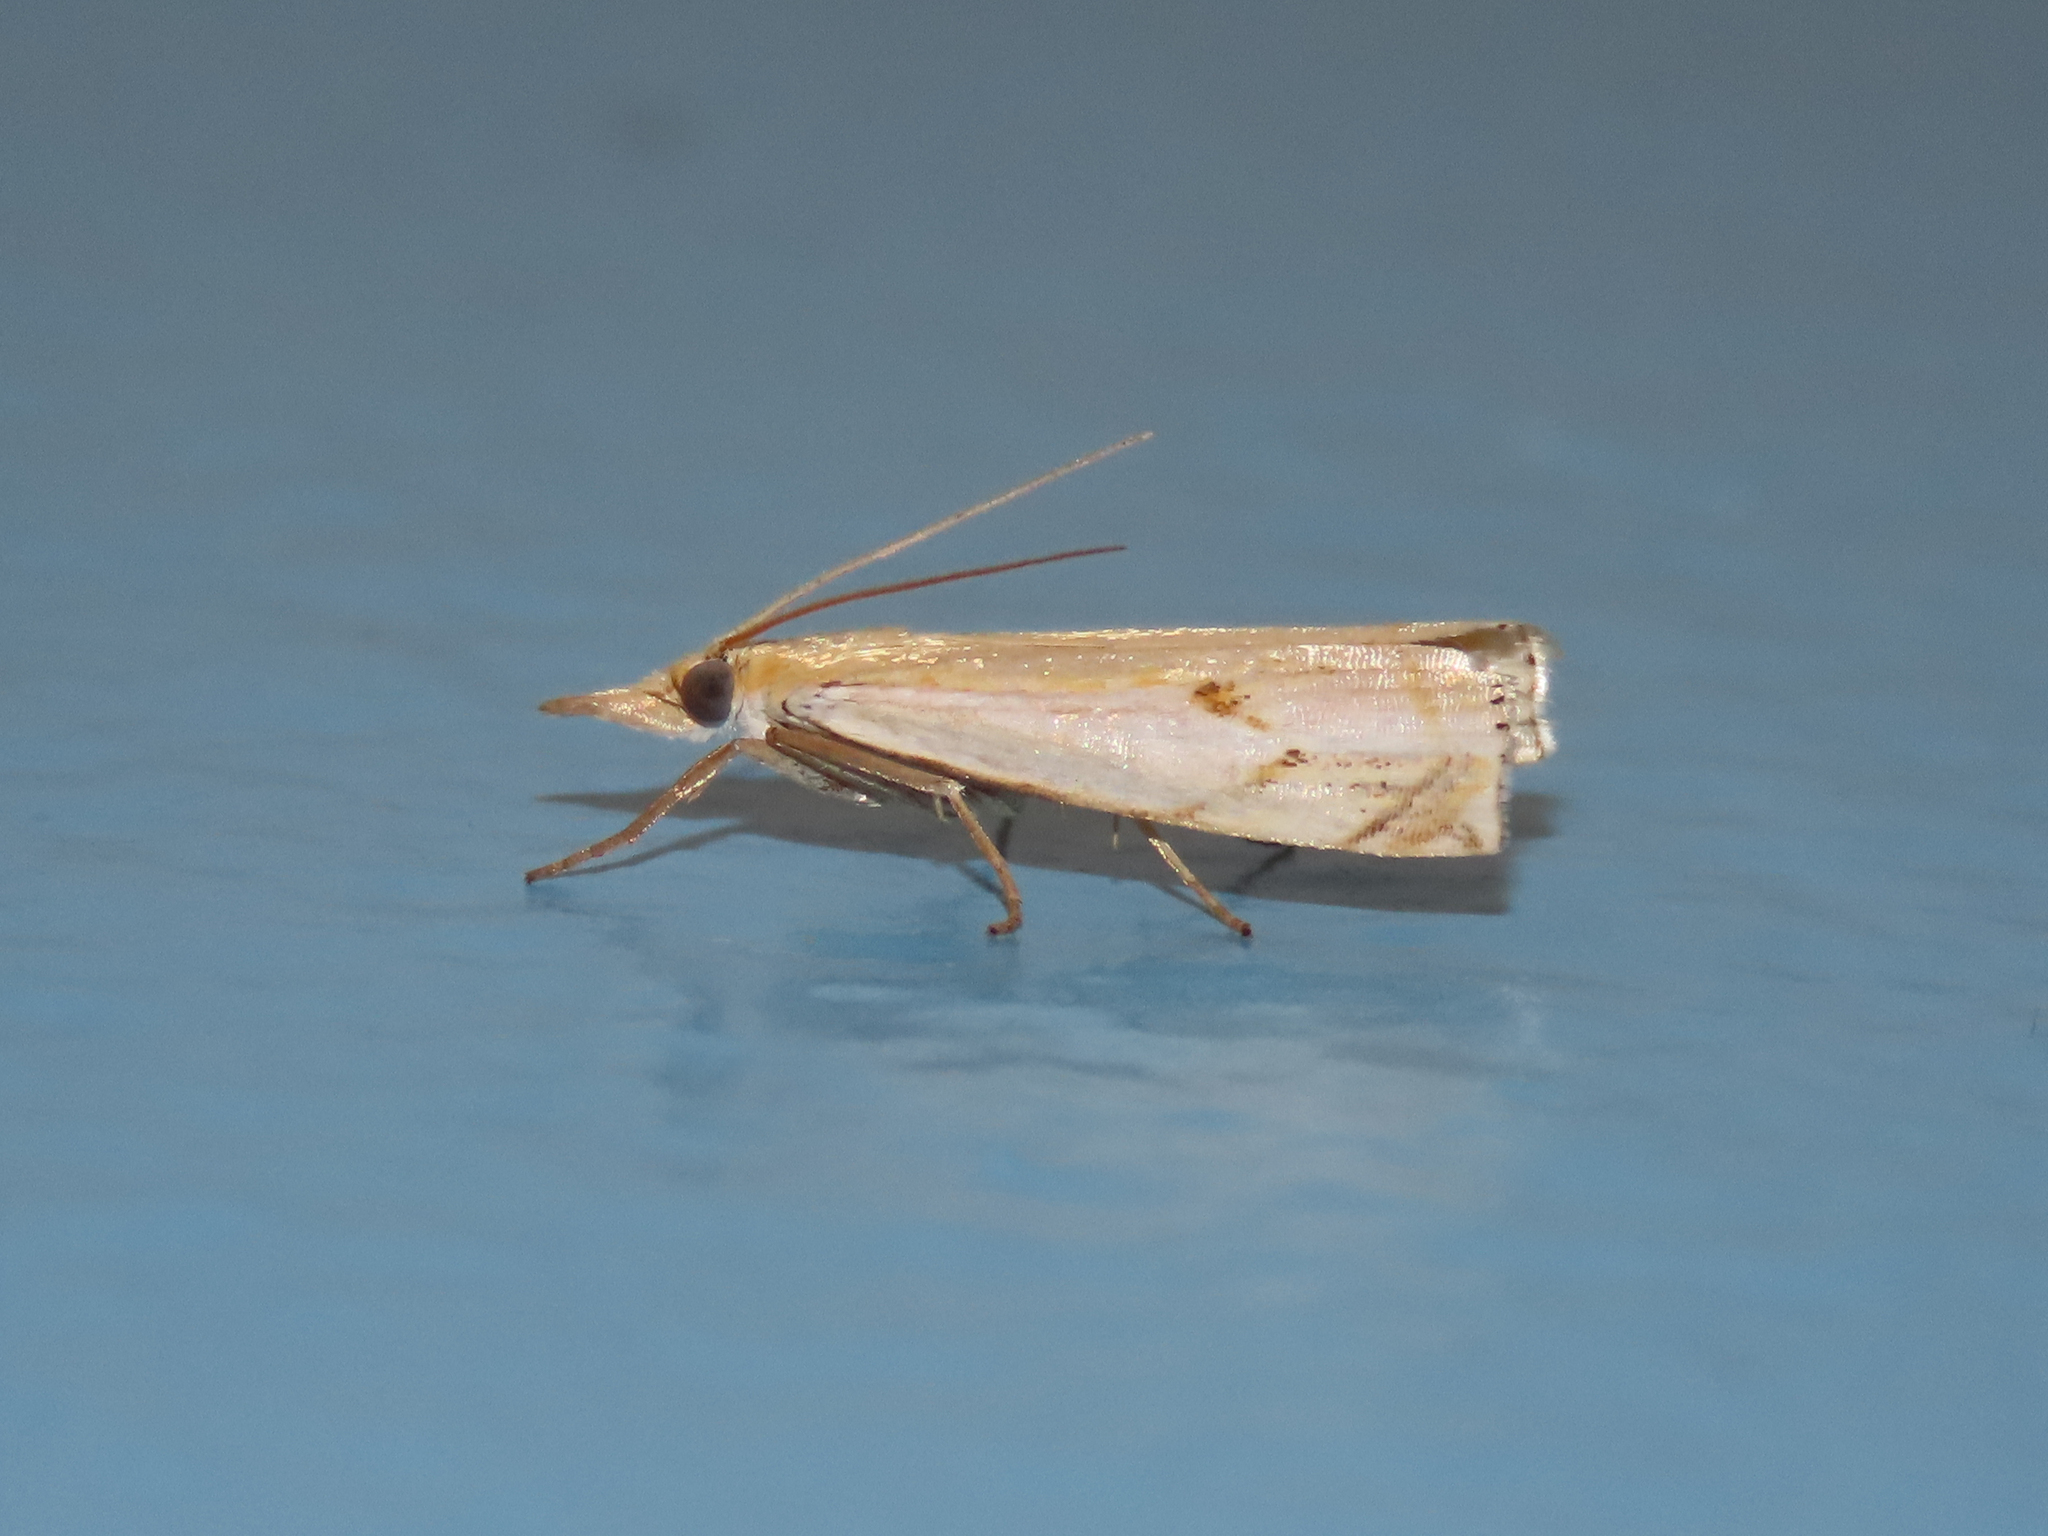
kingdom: Animalia
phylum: Arthropoda
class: Insecta
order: Lepidoptera
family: Crambidae
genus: Crambus
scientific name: Crambus agitatellus
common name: Double-banded grass-veneer
